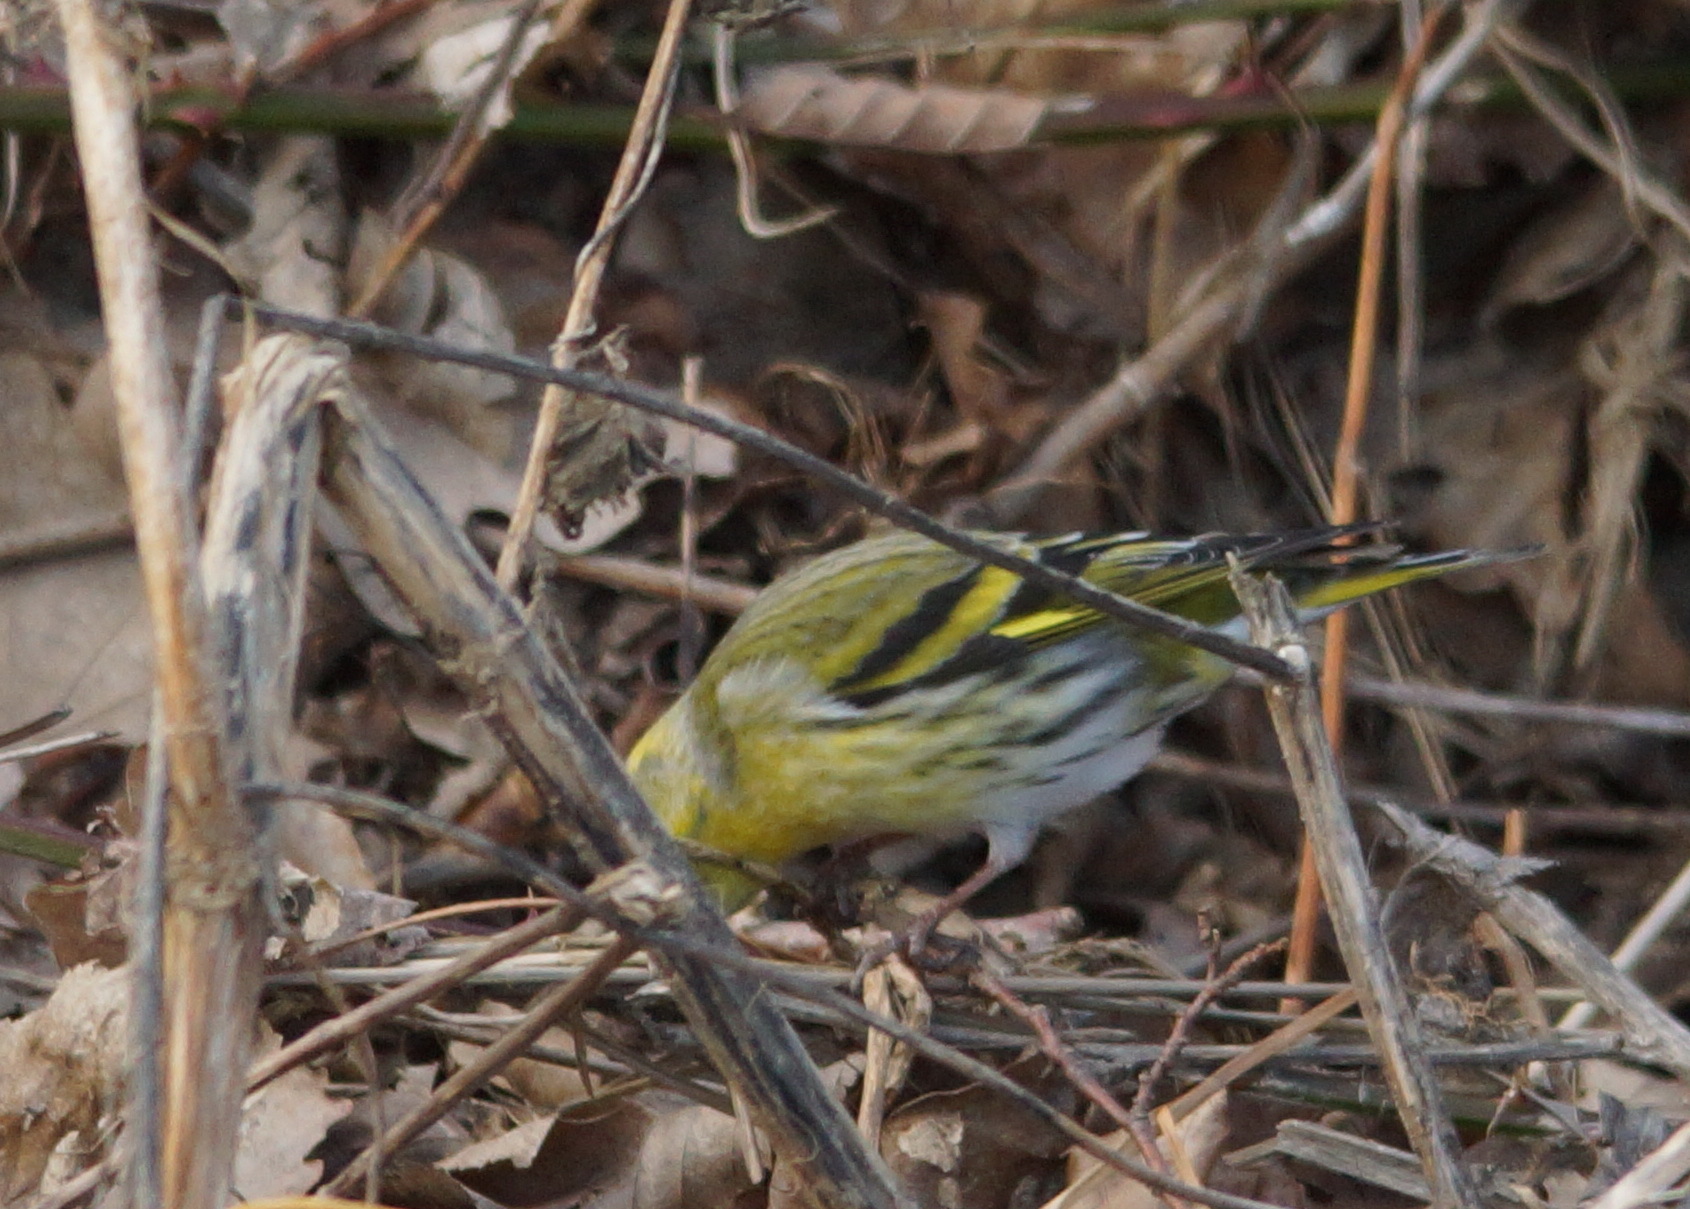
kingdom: Animalia
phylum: Chordata
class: Aves
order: Passeriformes
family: Fringillidae
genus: Spinus
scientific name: Spinus spinus
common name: Eurasian siskin
